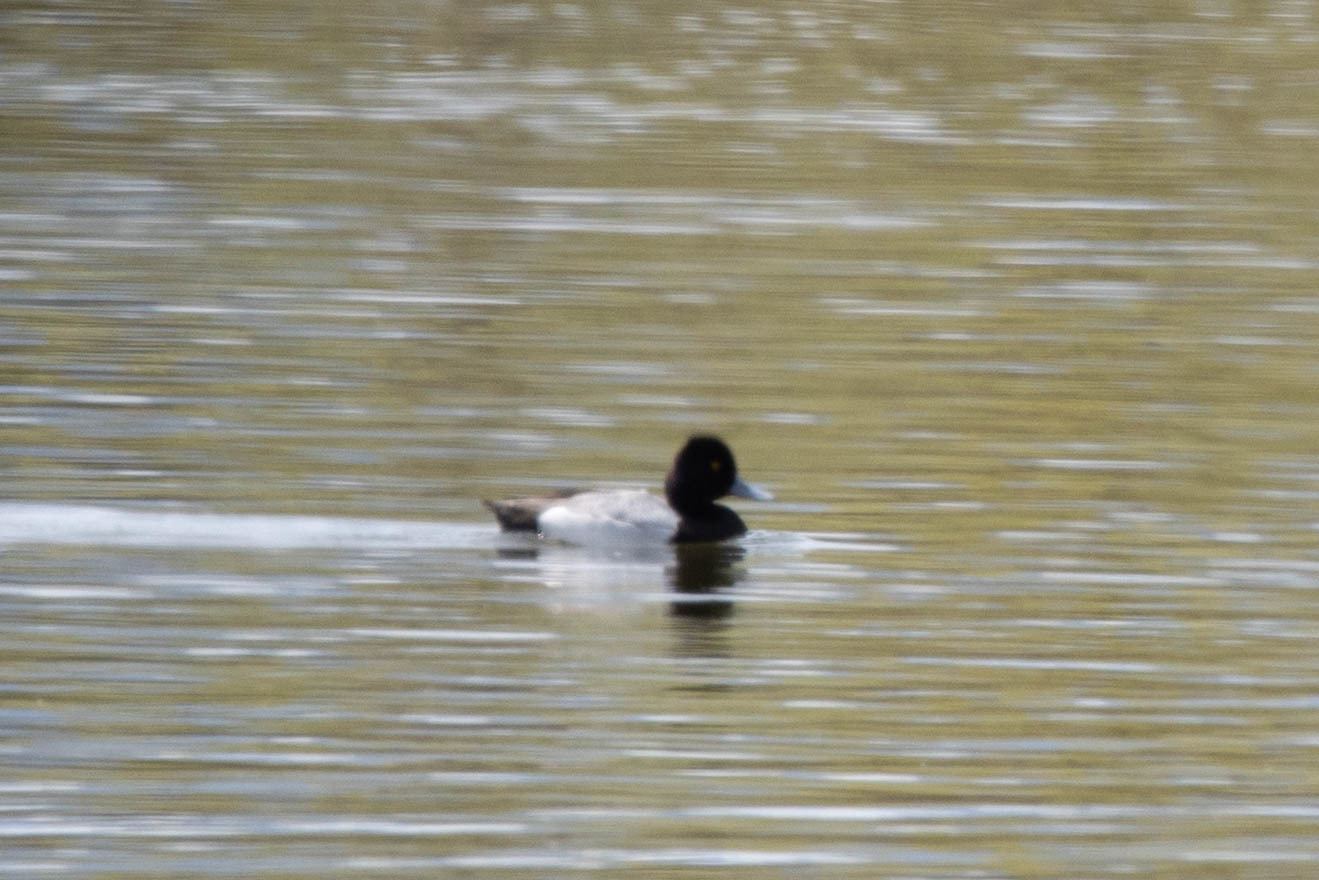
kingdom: Animalia
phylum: Chordata
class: Aves
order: Anseriformes
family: Anatidae
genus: Aythya
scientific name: Aythya affinis
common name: Lesser scaup
